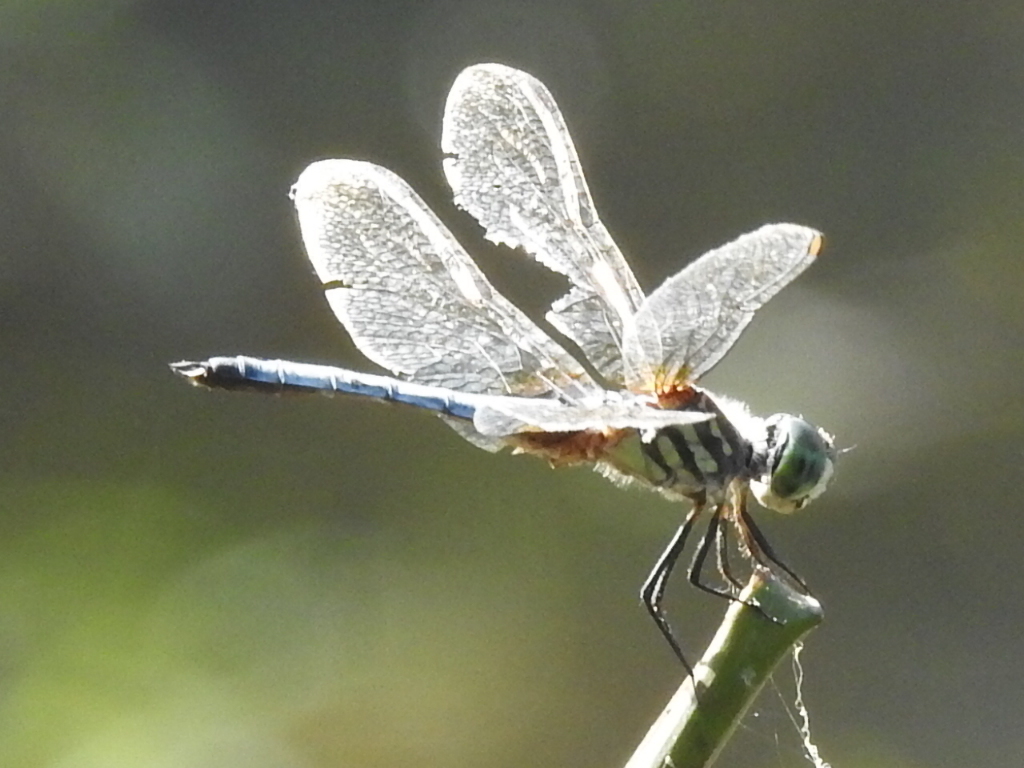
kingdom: Animalia
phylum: Arthropoda
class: Insecta
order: Odonata
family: Libellulidae
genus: Pachydiplax
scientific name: Pachydiplax longipennis
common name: Blue dasher
